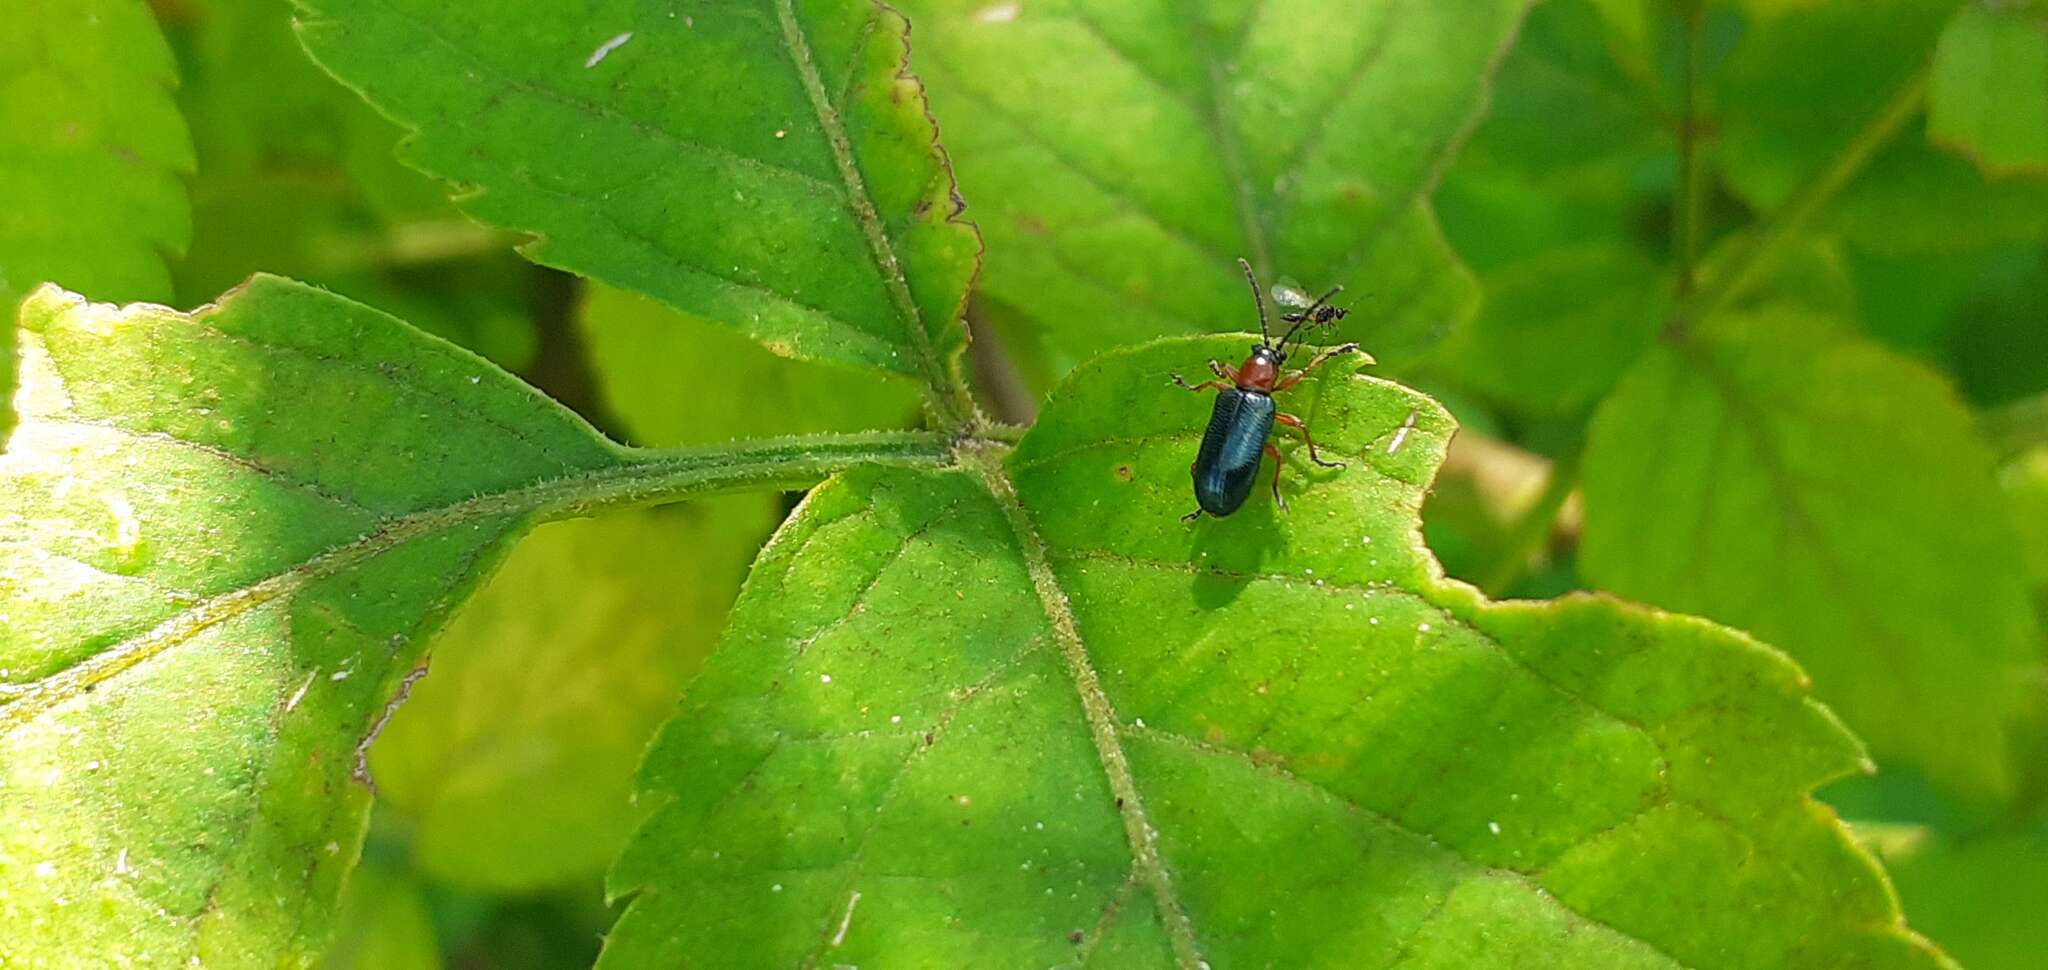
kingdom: Animalia
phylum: Arthropoda
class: Insecta
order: Coleoptera
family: Chrysomelidae
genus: Oulema
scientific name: Oulema
